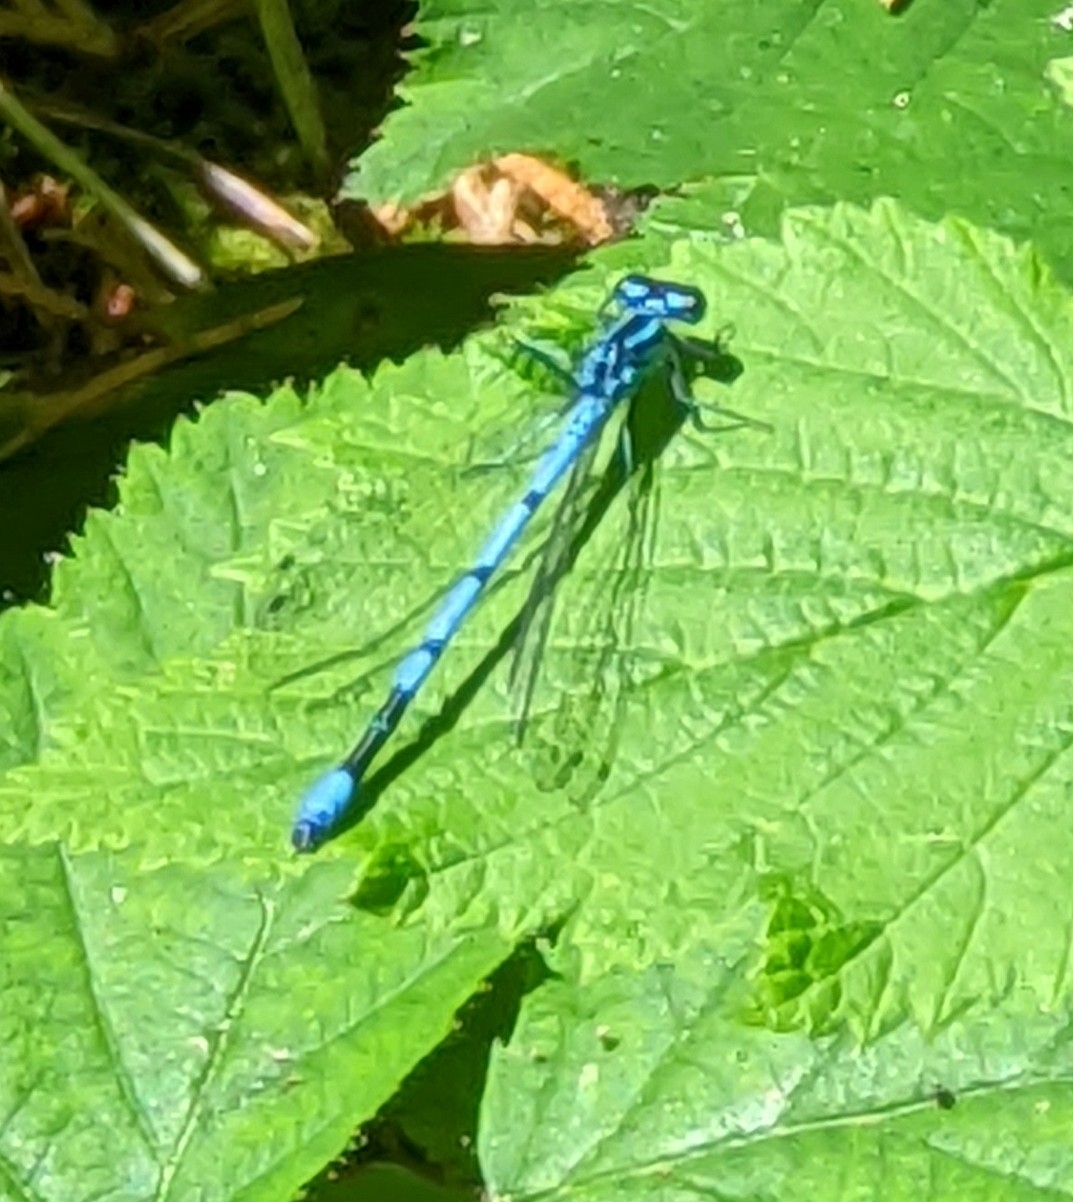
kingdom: Animalia
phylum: Arthropoda
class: Insecta
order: Odonata
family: Coenagrionidae
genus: Coenagrion
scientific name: Coenagrion puella
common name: Azure damselfly
